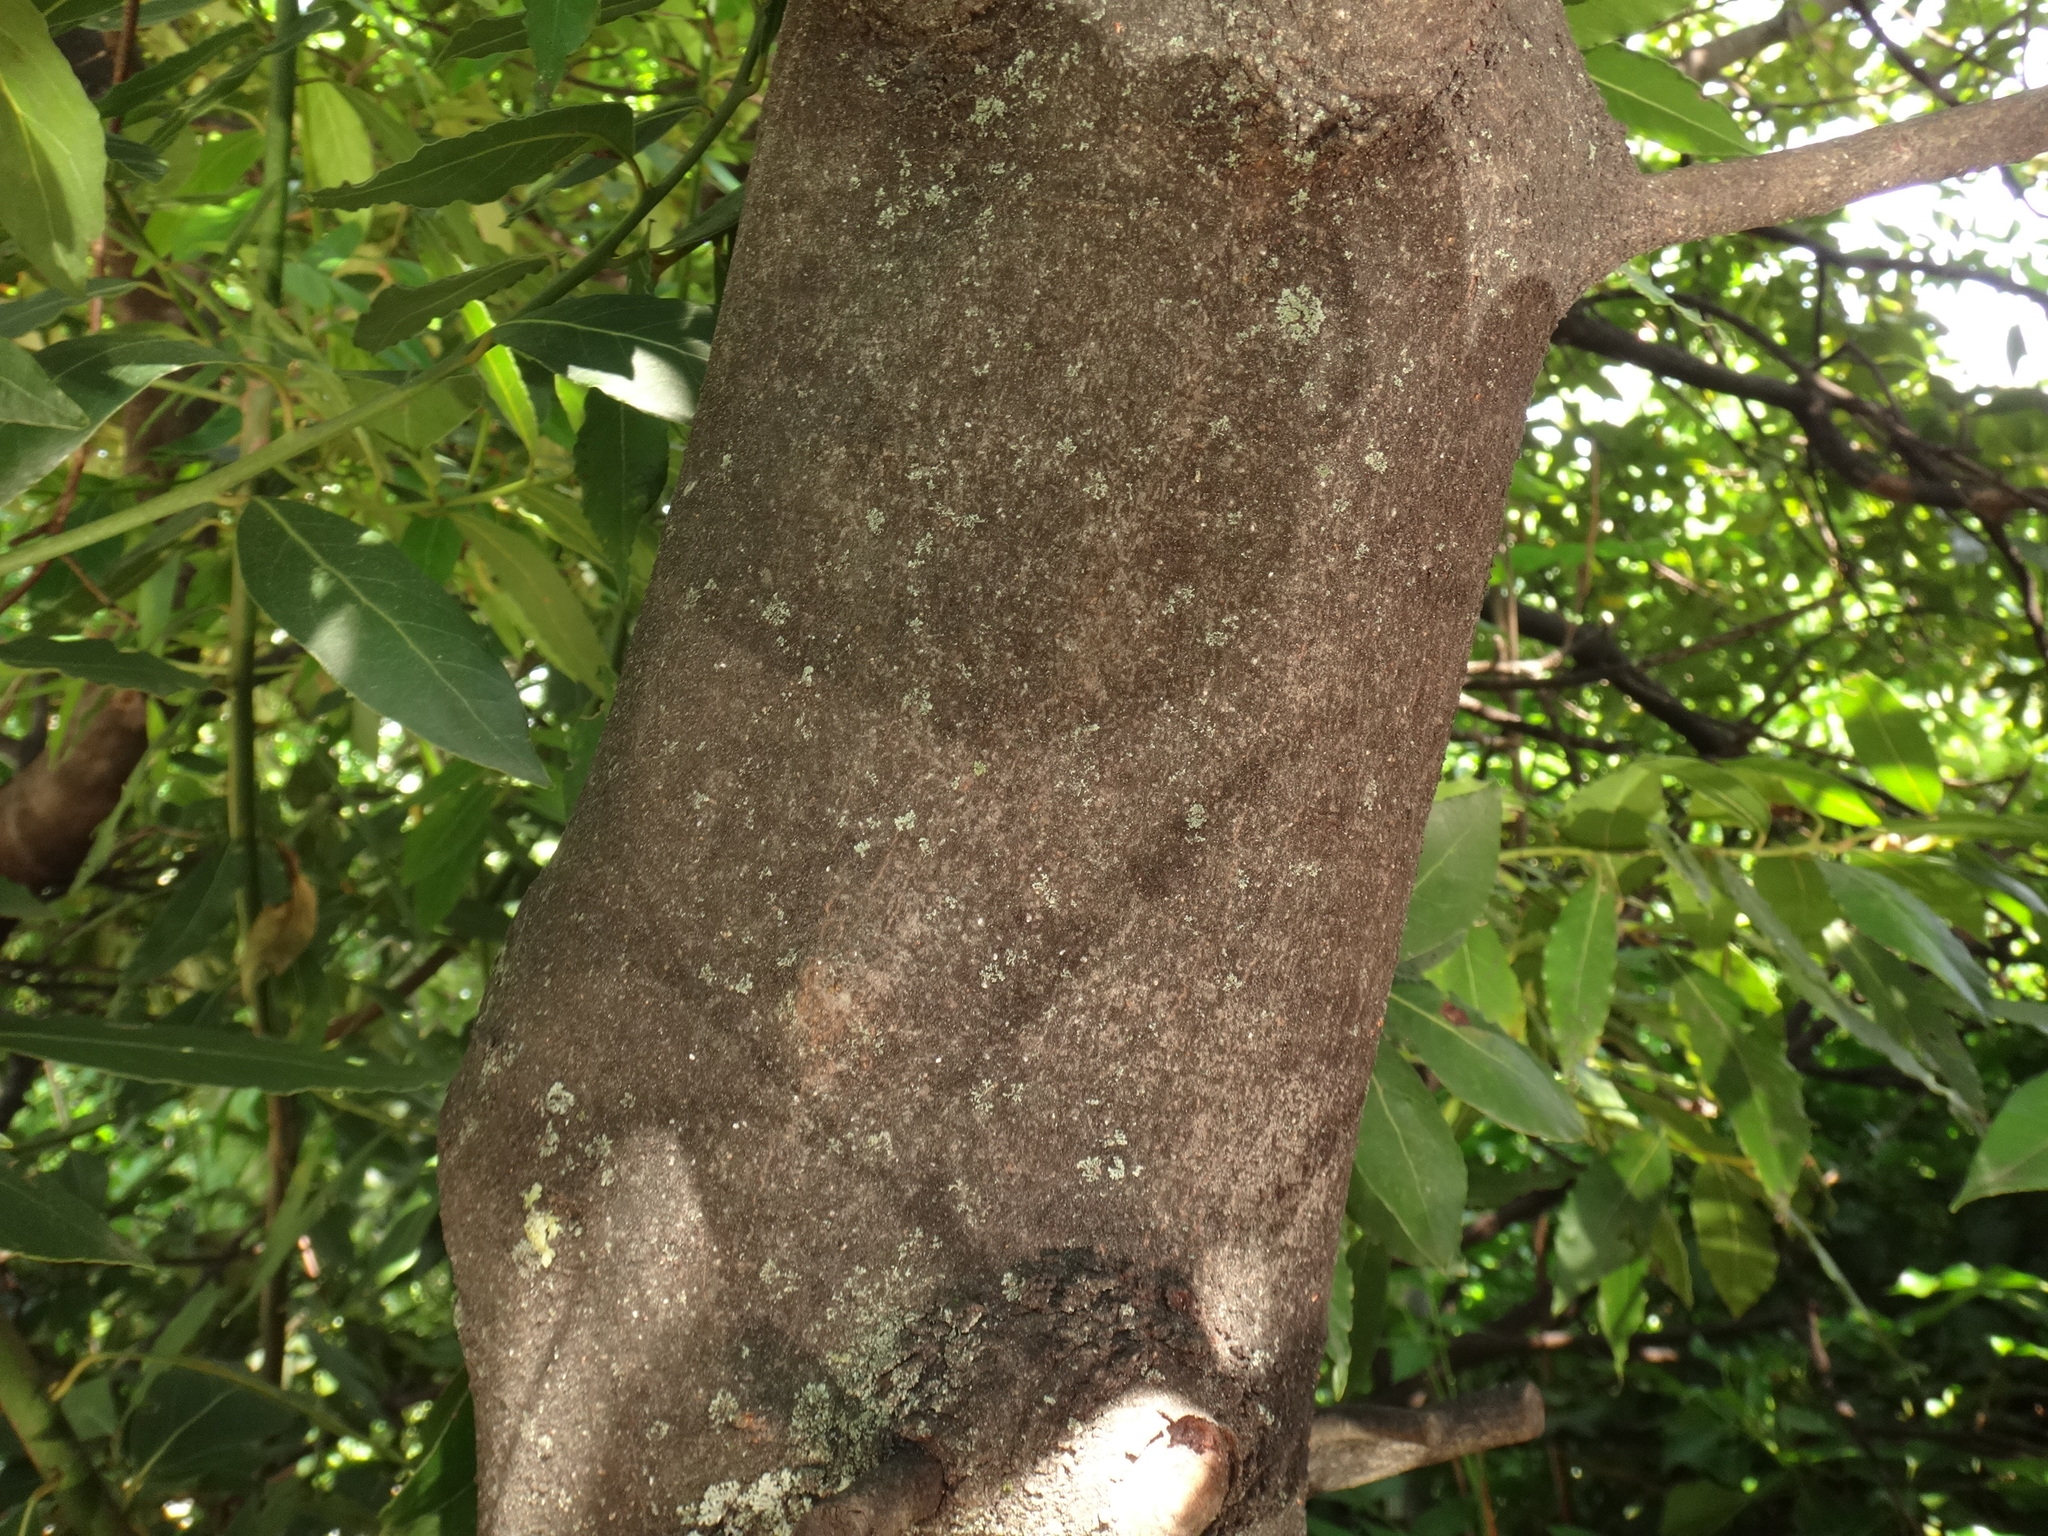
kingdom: Plantae
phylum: Tracheophyta
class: Magnoliopsida
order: Laurales
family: Lauraceae
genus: Laurus
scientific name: Laurus nobilis
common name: Bay
